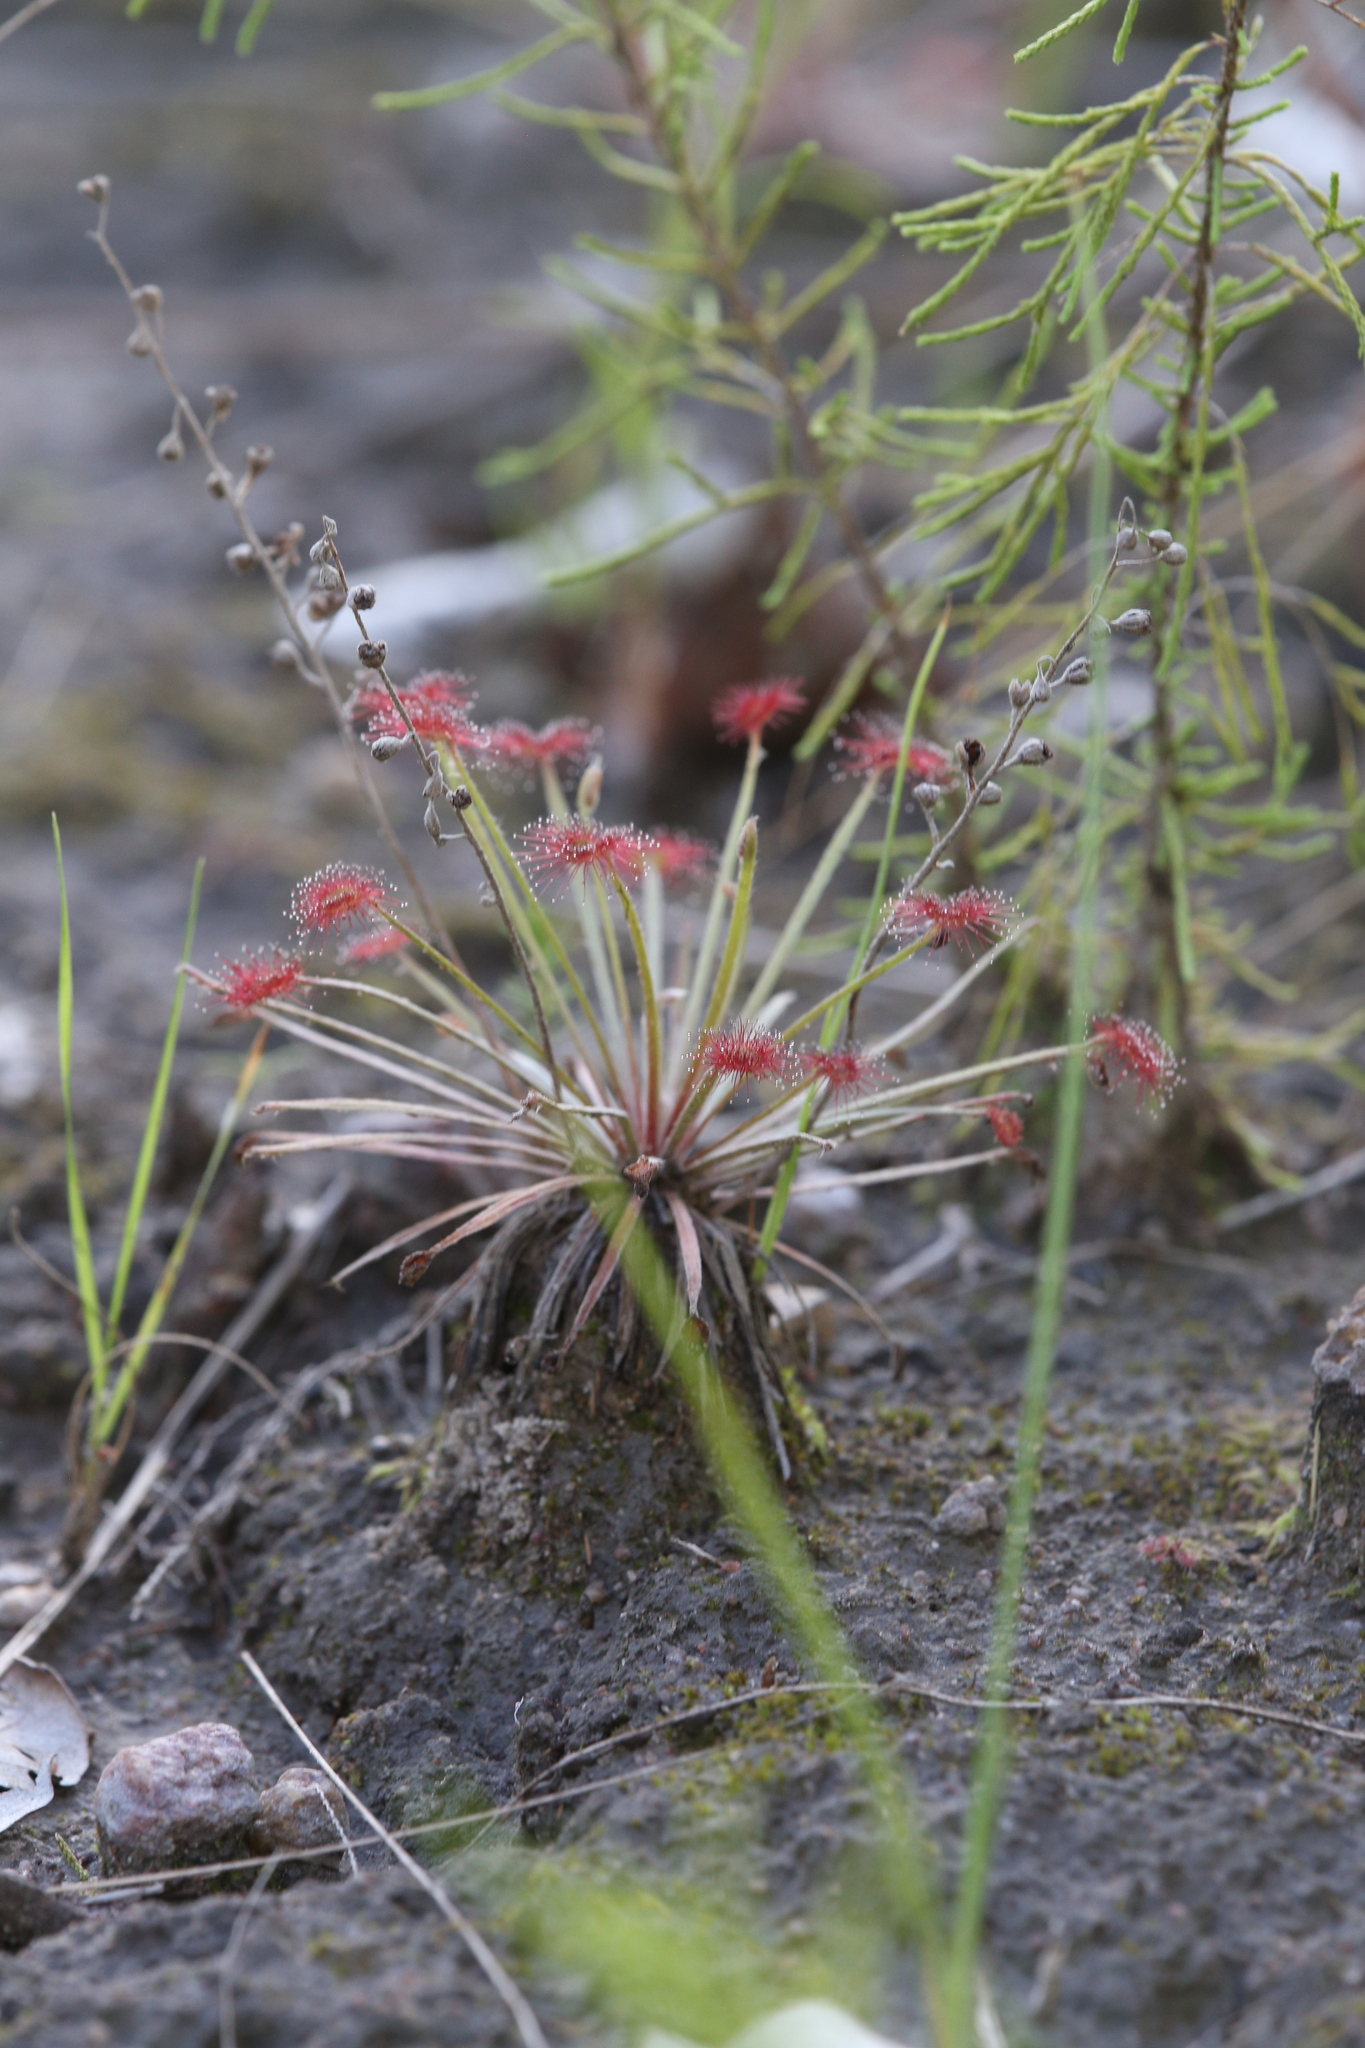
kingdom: Plantae
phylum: Tracheophyta
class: Magnoliopsida
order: Caryophyllales
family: Droseraceae
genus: Drosera
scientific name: Drosera dilatatopetiolaris
